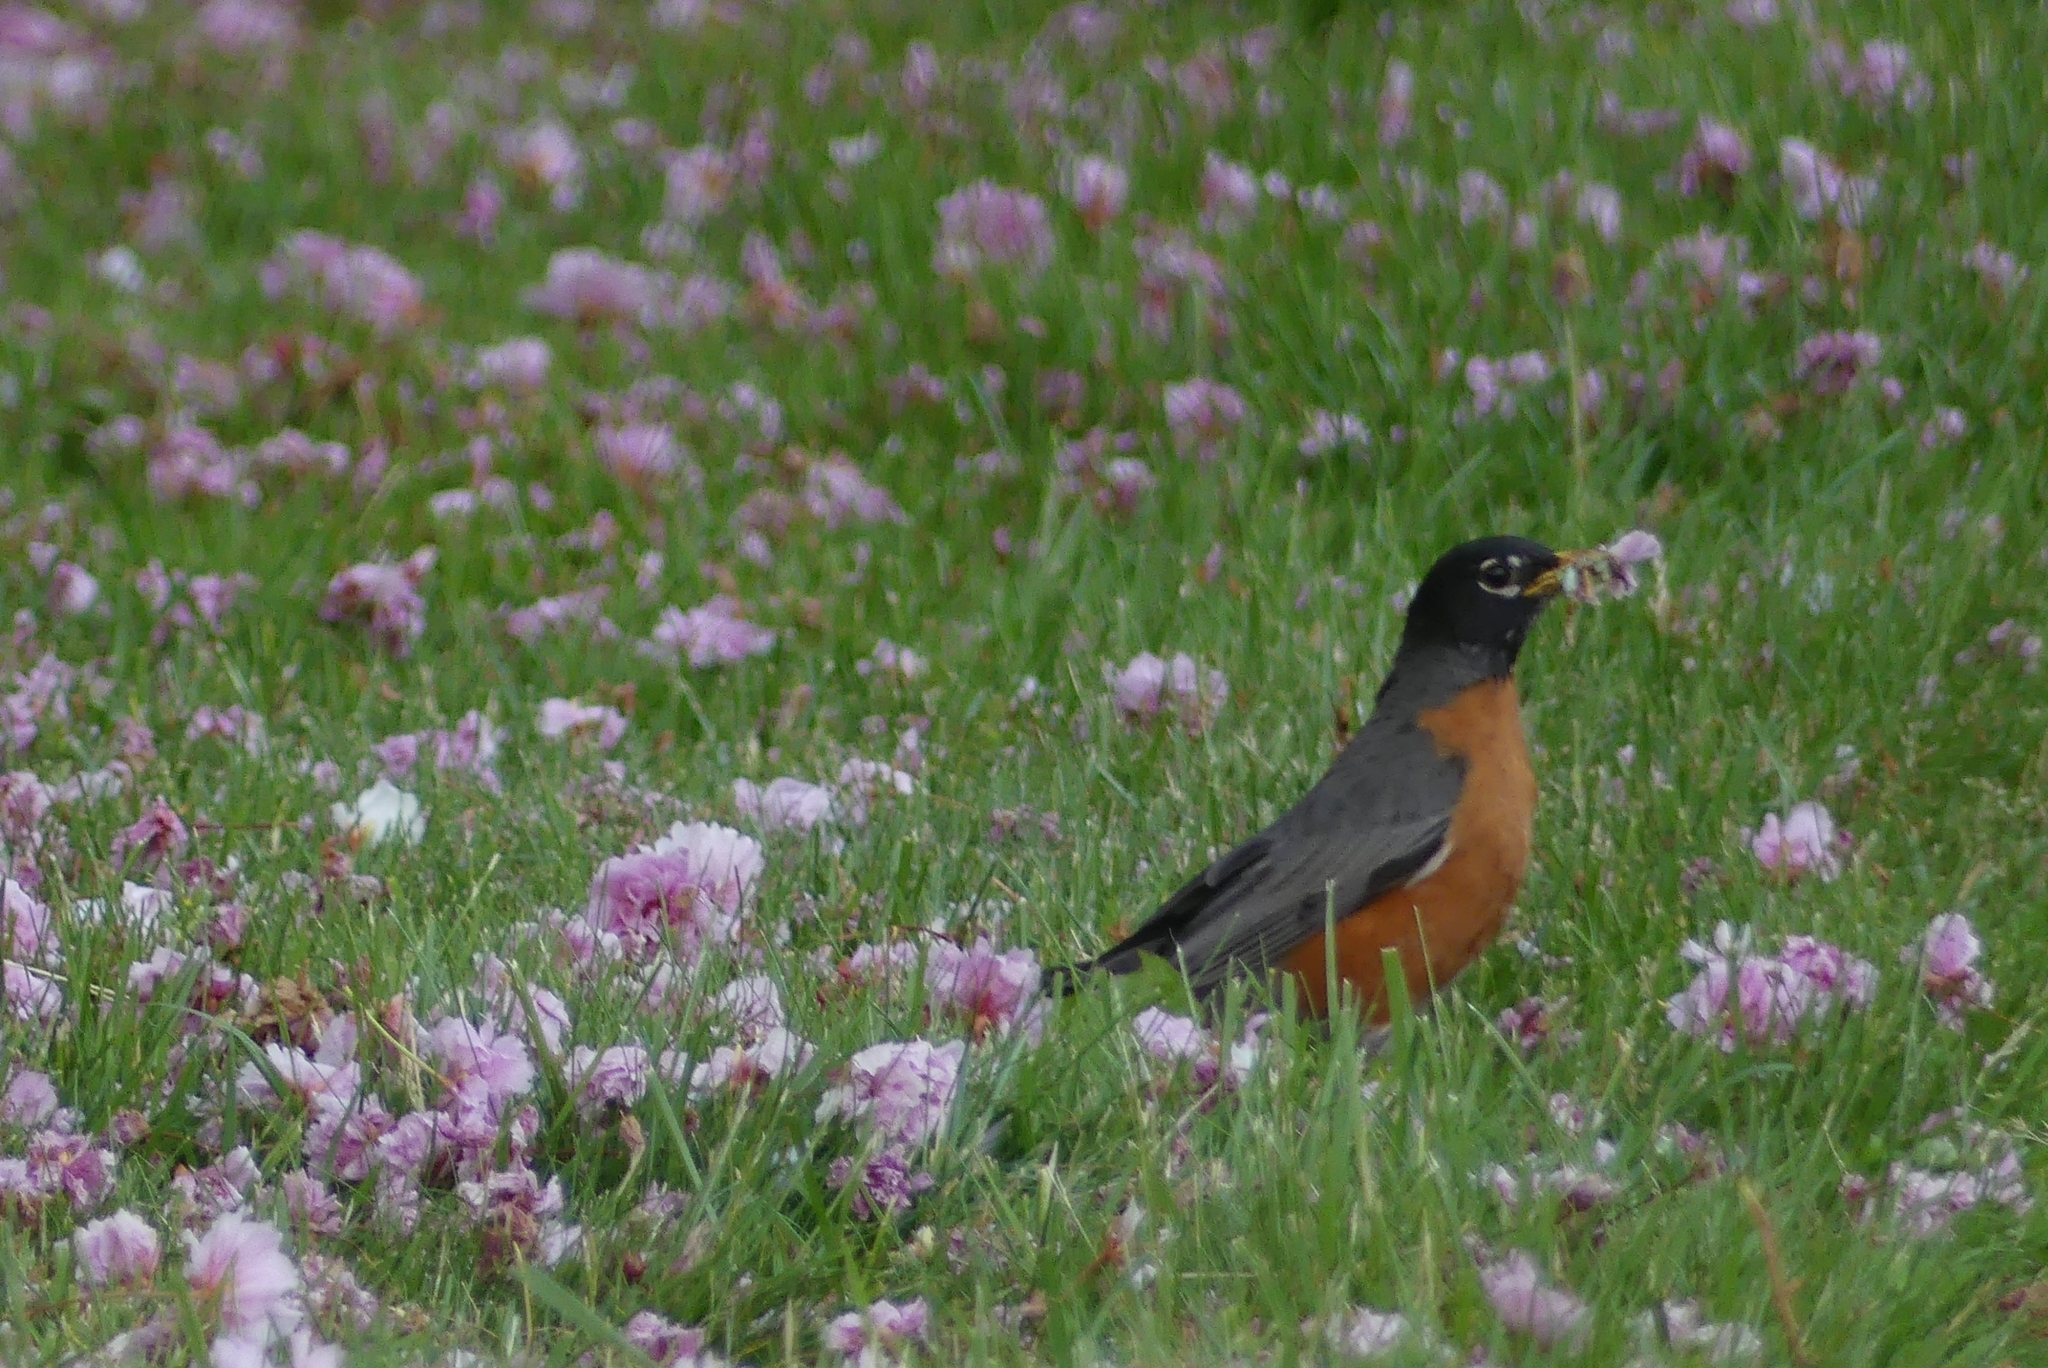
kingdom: Animalia
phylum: Chordata
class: Aves
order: Passeriformes
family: Turdidae
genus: Turdus
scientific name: Turdus migratorius
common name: American robin
